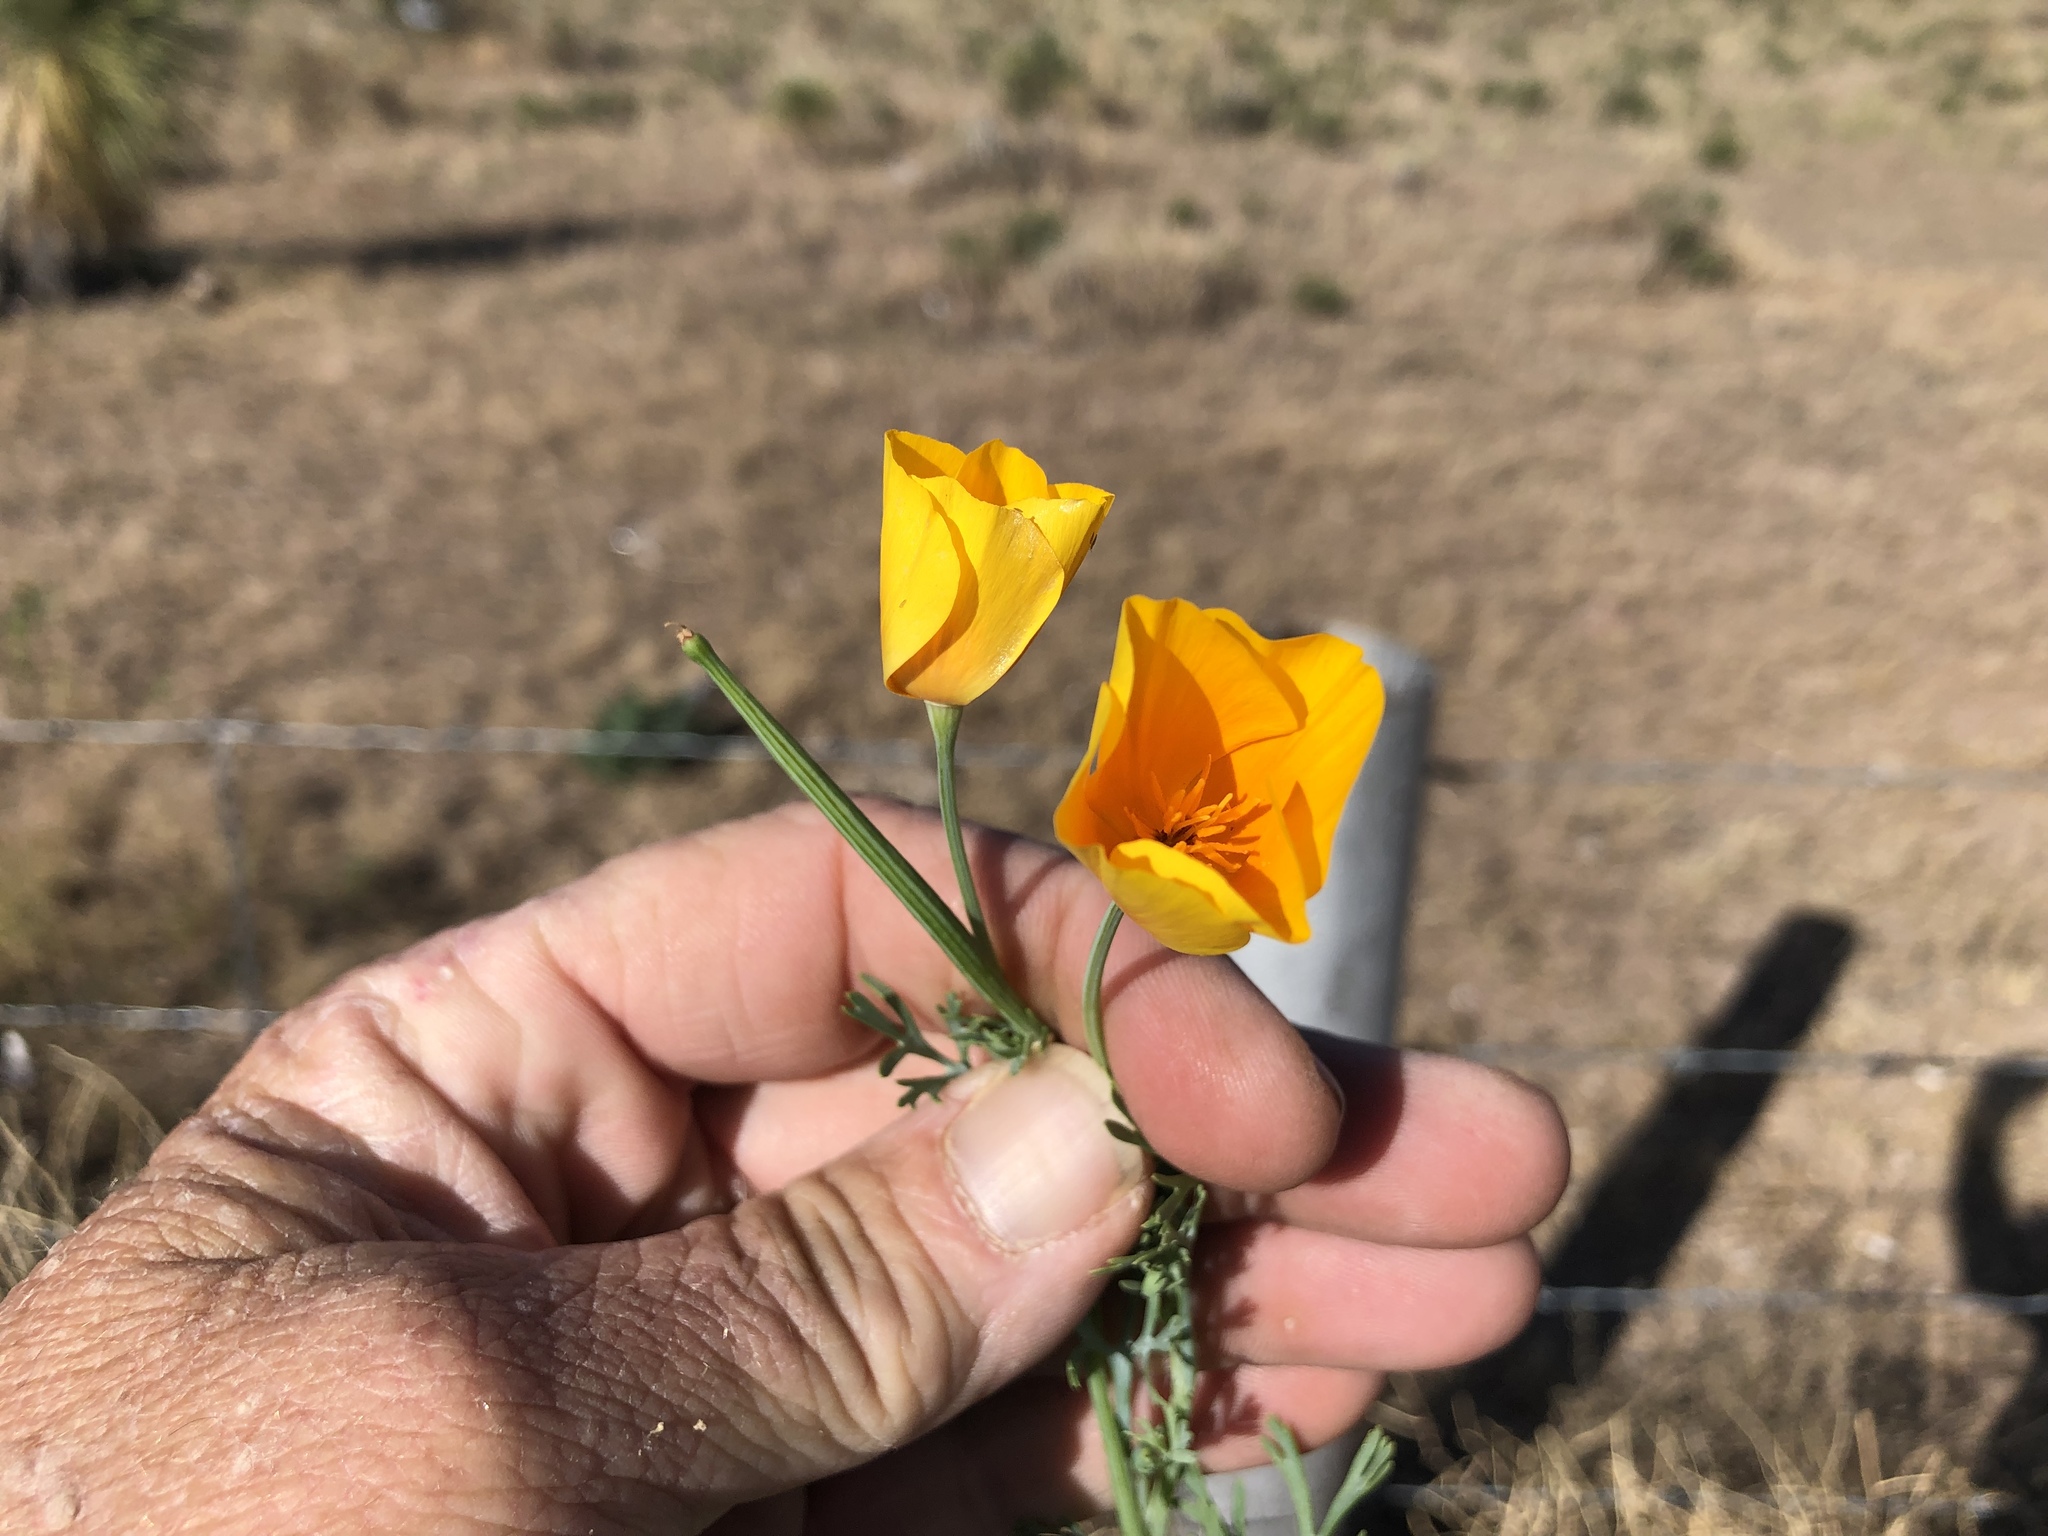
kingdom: Plantae
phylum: Tracheophyta
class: Magnoliopsida
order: Ranunculales
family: Papaveraceae
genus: Eschscholzia
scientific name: Eschscholzia californica
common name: California poppy
